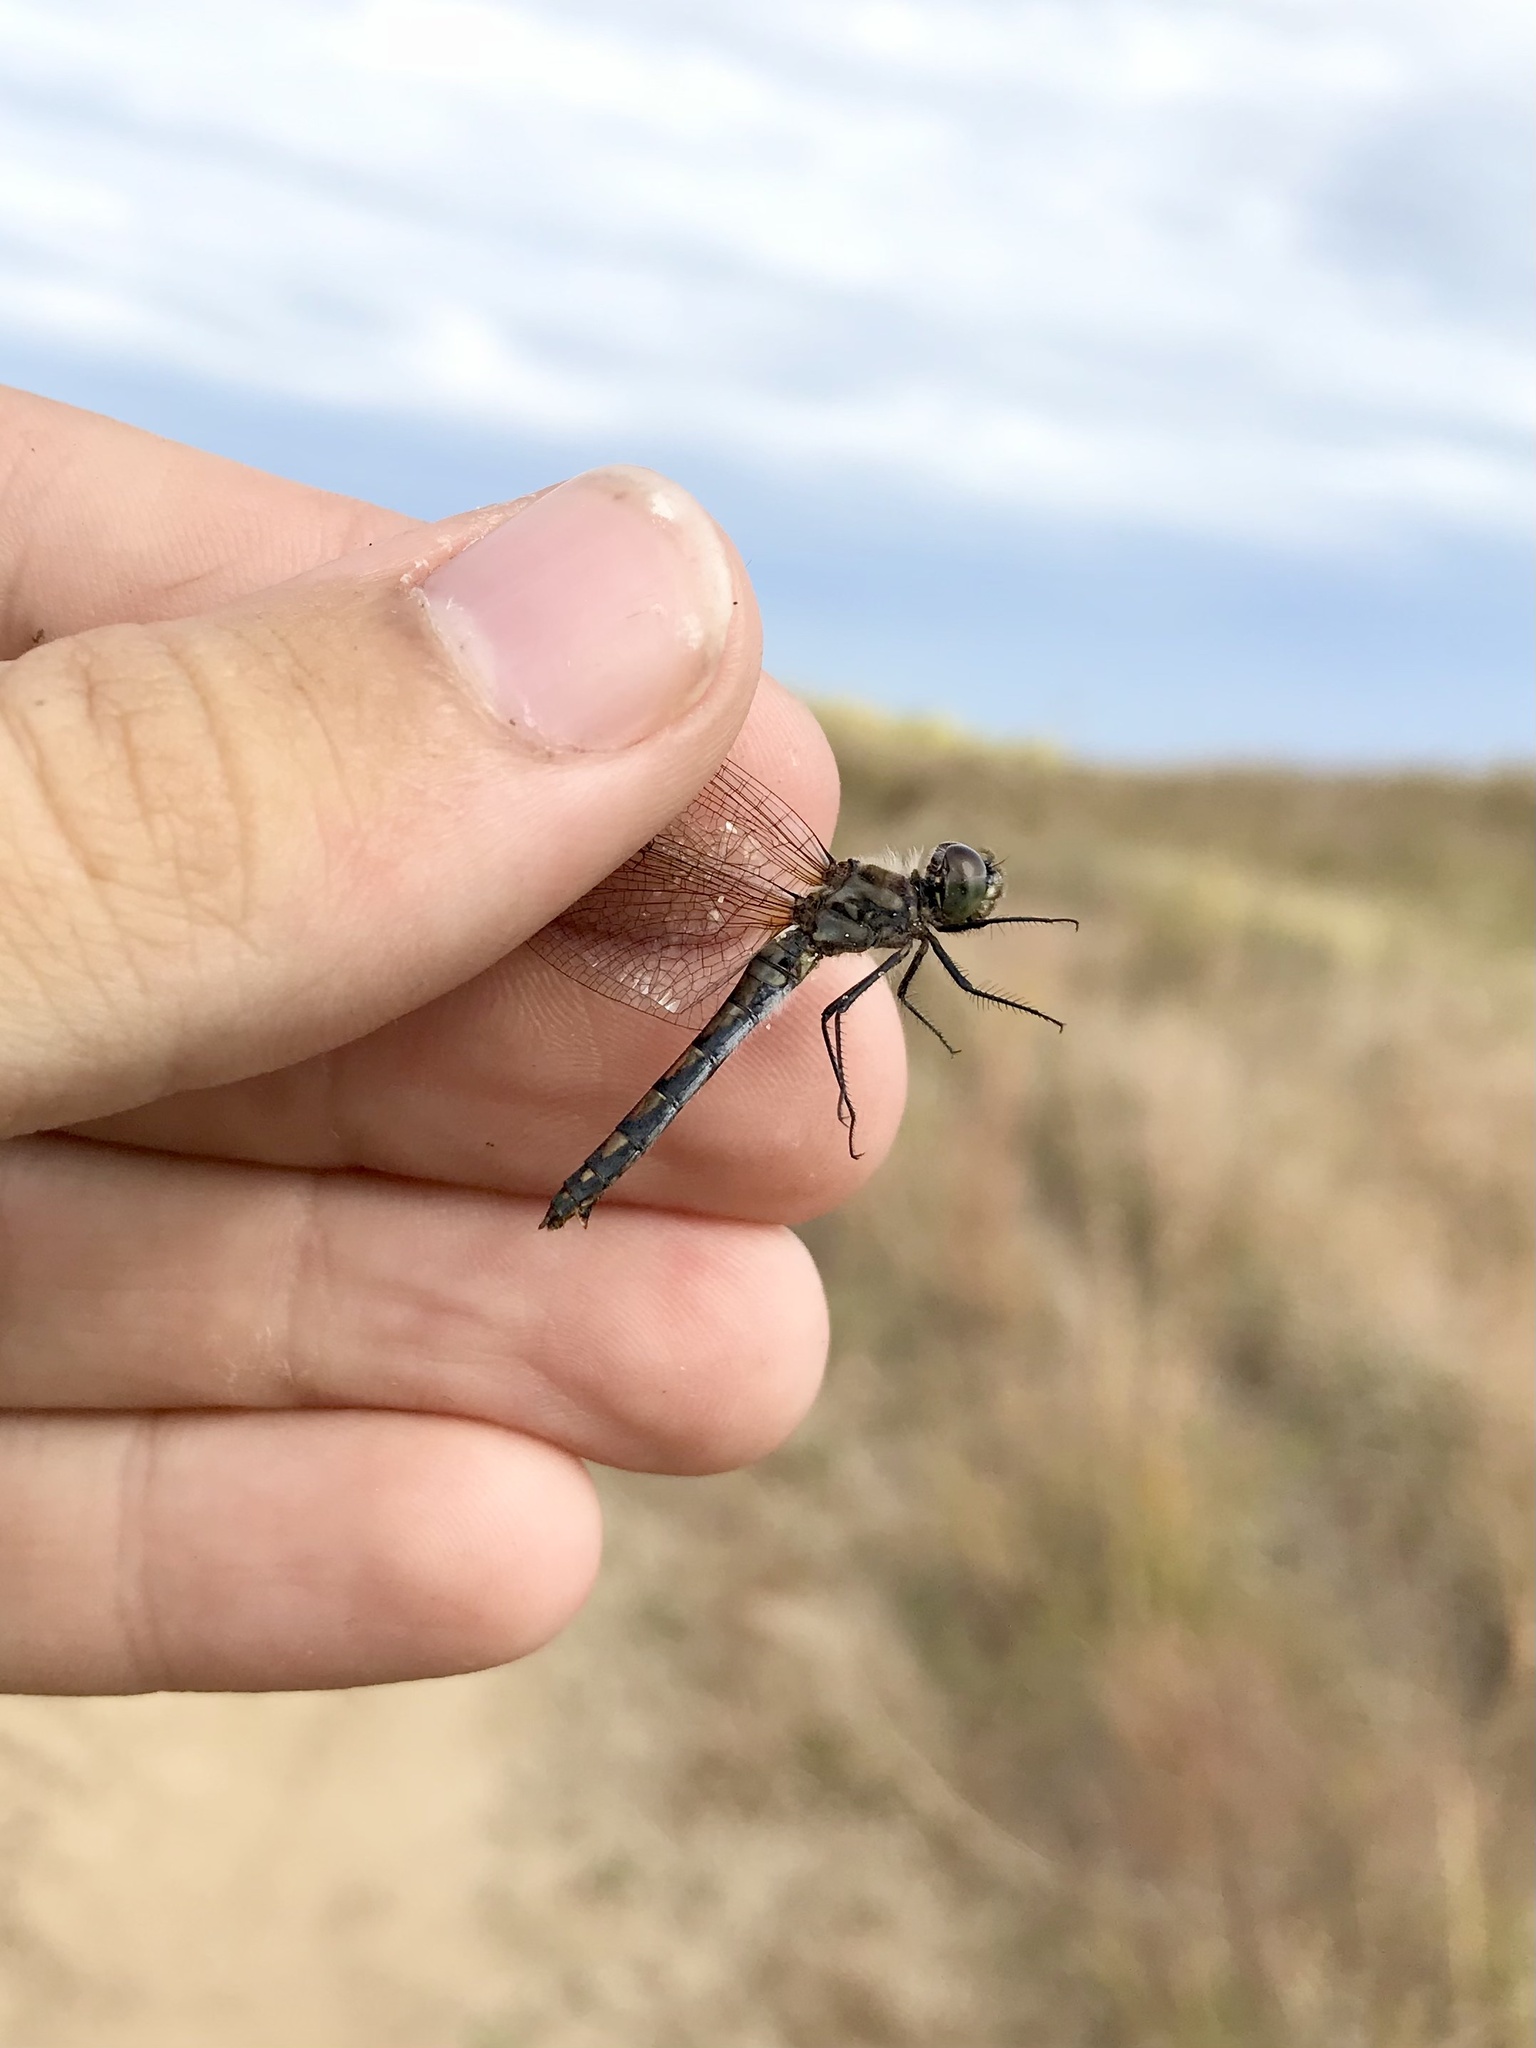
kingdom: Animalia
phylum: Arthropoda
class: Insecta
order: Odonata
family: Libellulidae
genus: Sympetrum
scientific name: Sympetrum danae
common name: Black darter
